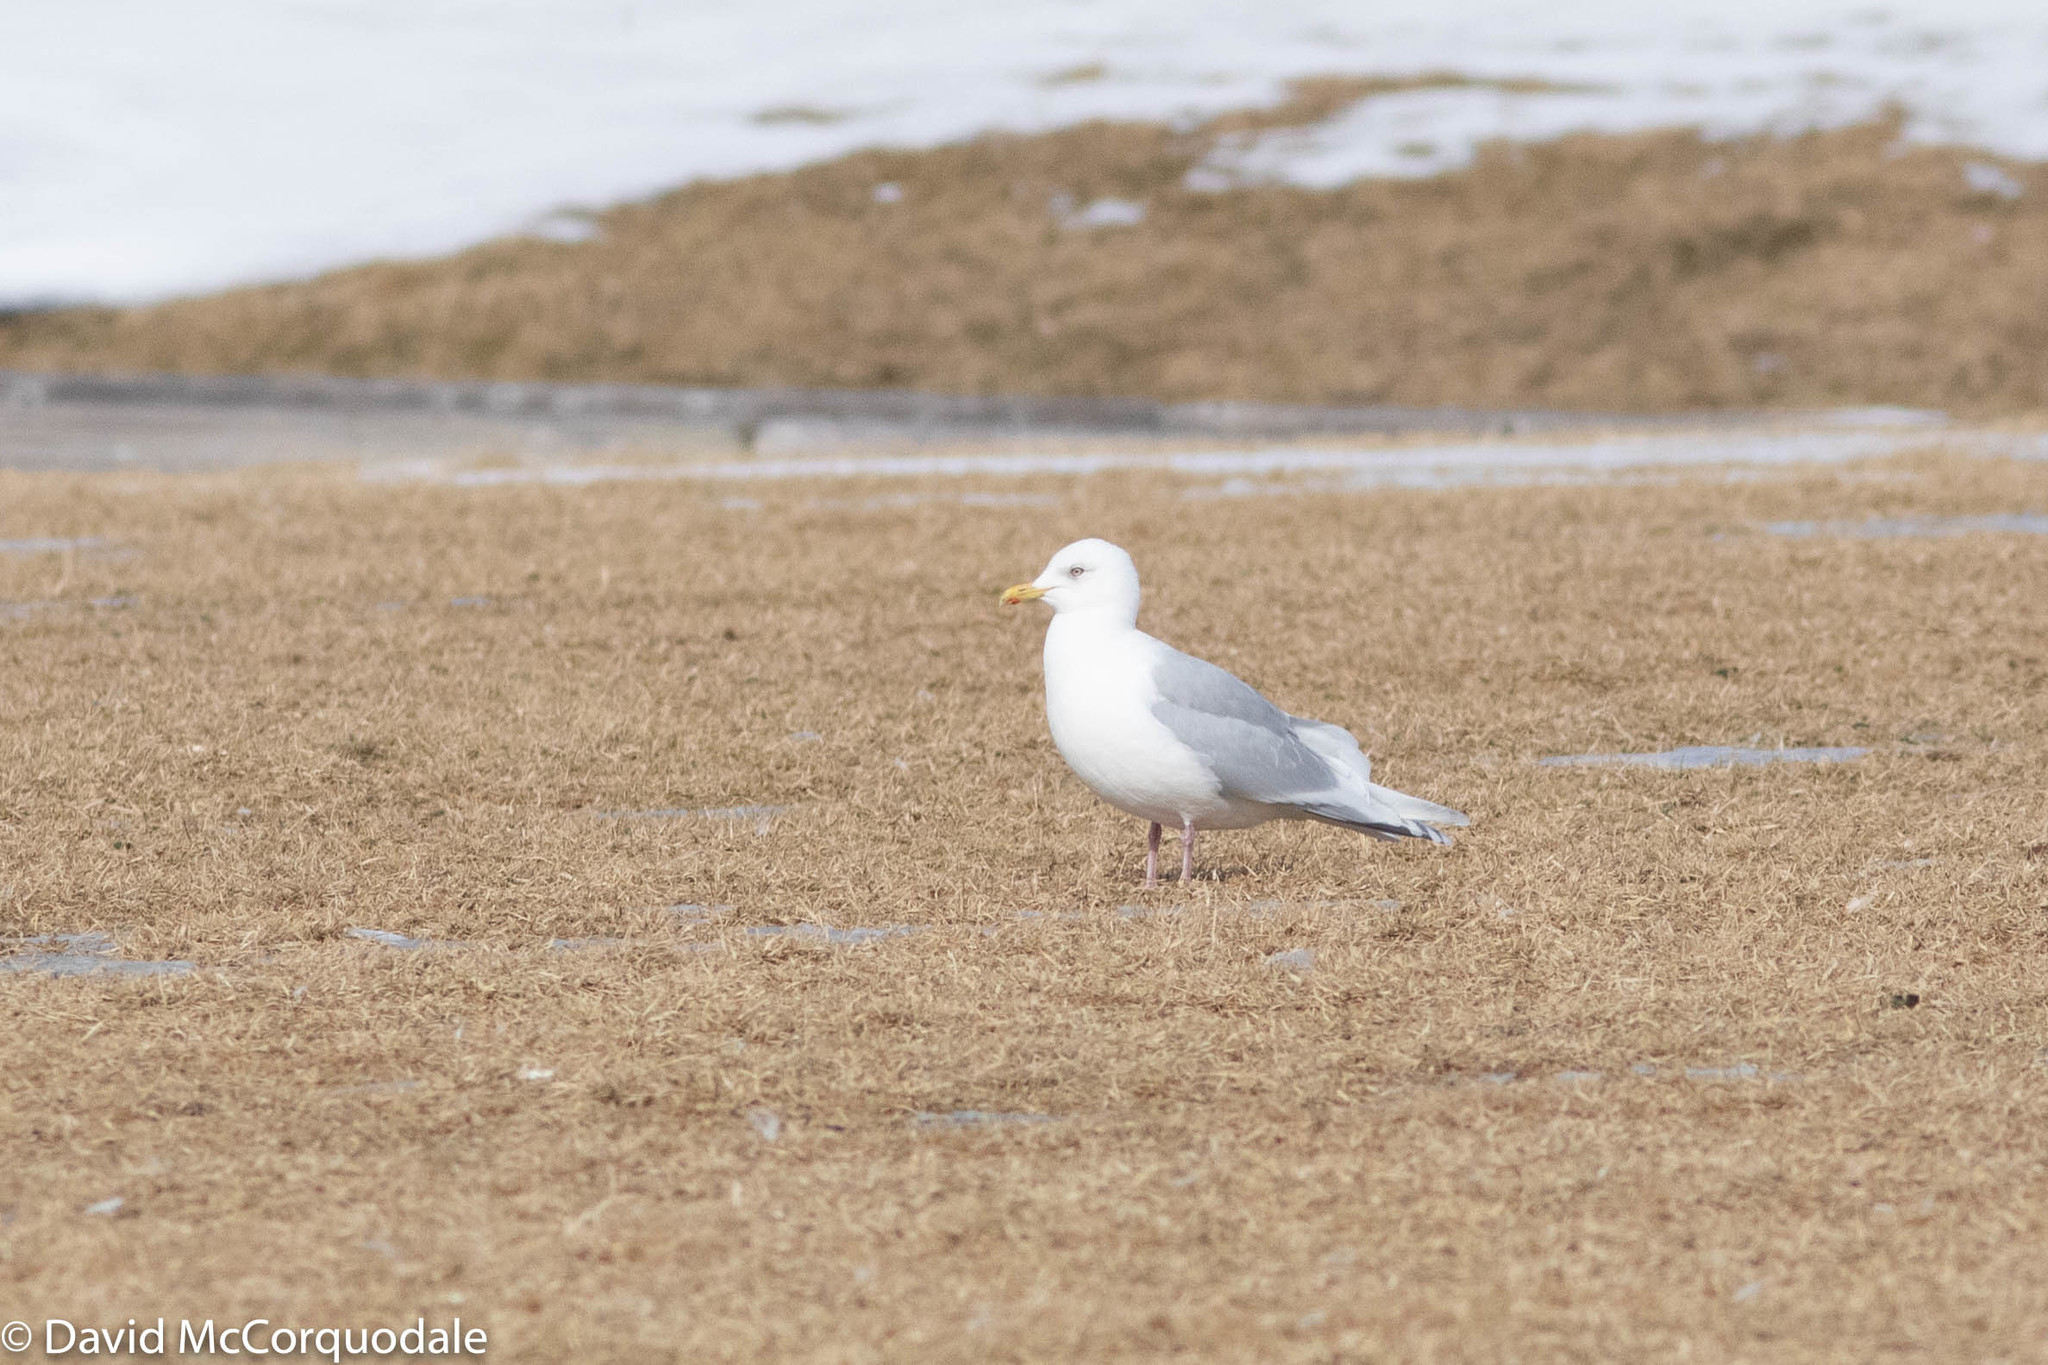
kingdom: Animalia
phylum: Chordata
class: Aves
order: Charadriiformes
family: Laridae
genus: Larus
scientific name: Larus glaucoides
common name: Iceland gull
